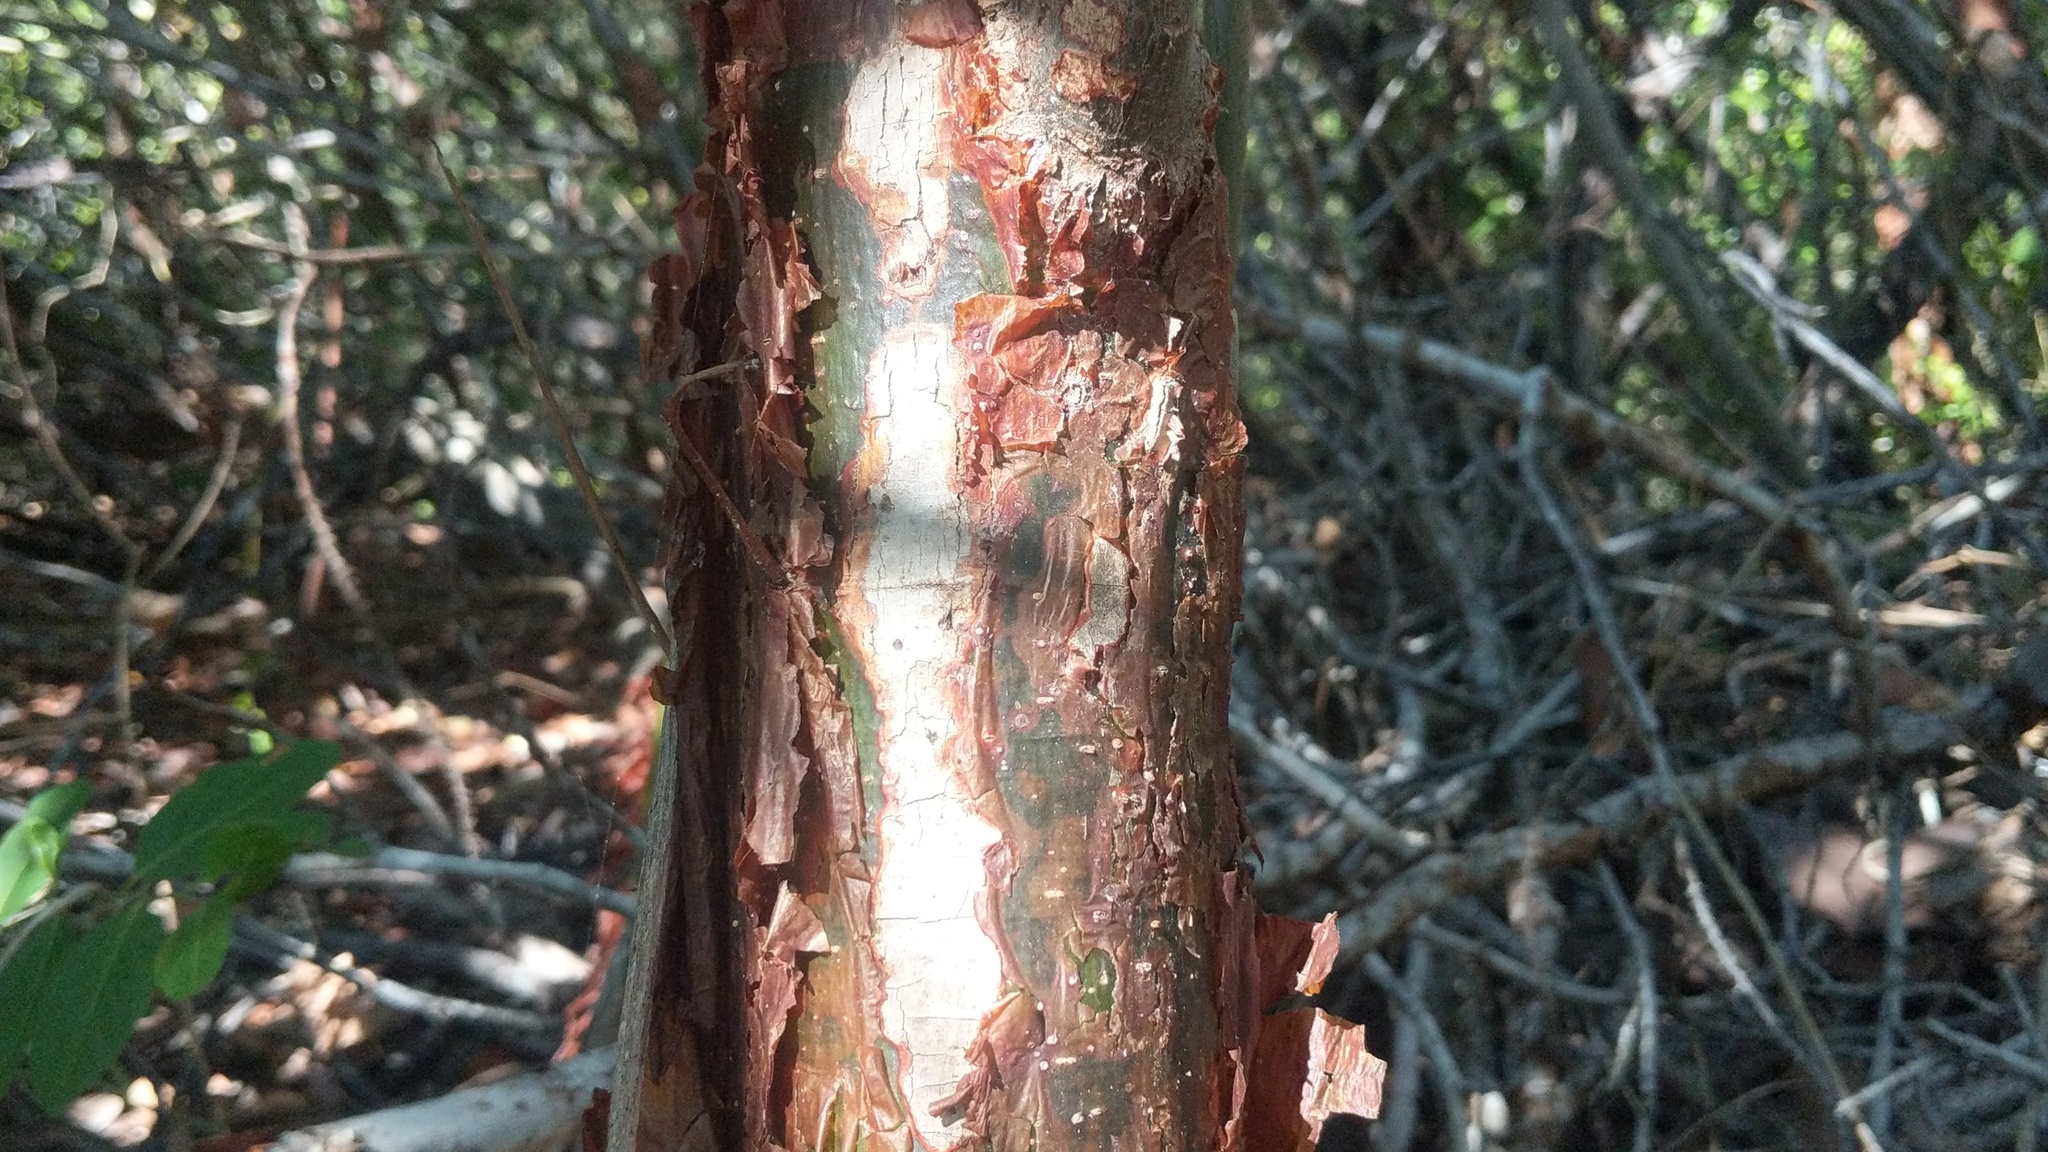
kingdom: Plantae
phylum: Tracheophyta
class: Magnoliopsida
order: Sapindales
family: Burseraceae
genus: Bursera
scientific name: Bursera simaruba
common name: Turpentine tree
